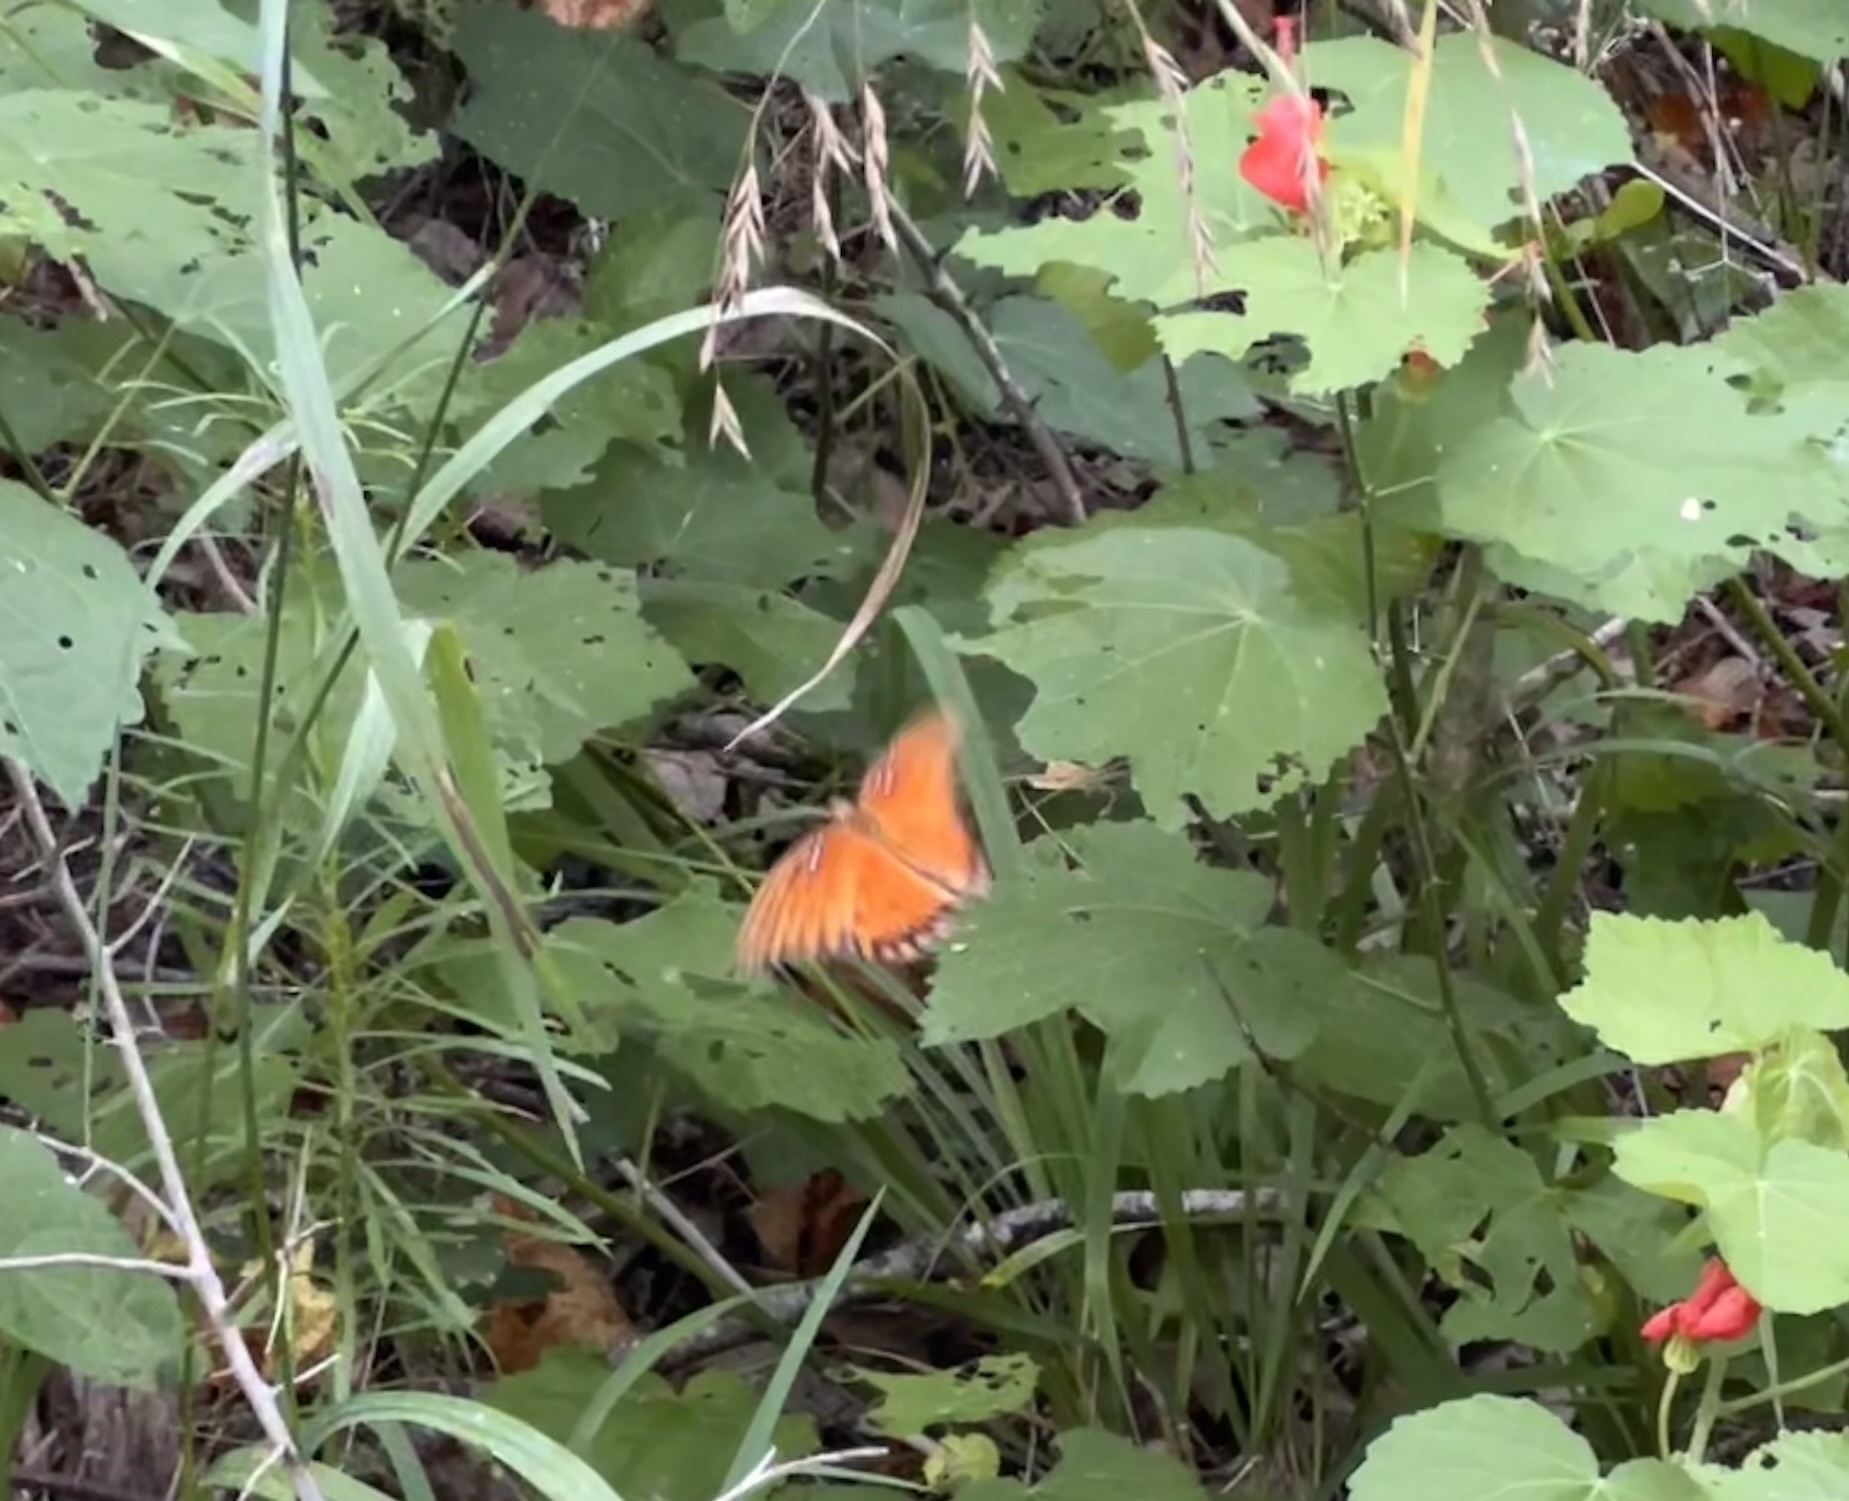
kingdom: Animalia
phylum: Arthropoda
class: Insecta
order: Lepidoptera
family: Nymphalidae
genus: Dione
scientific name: Dione vanillae
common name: Gulf fritillary
